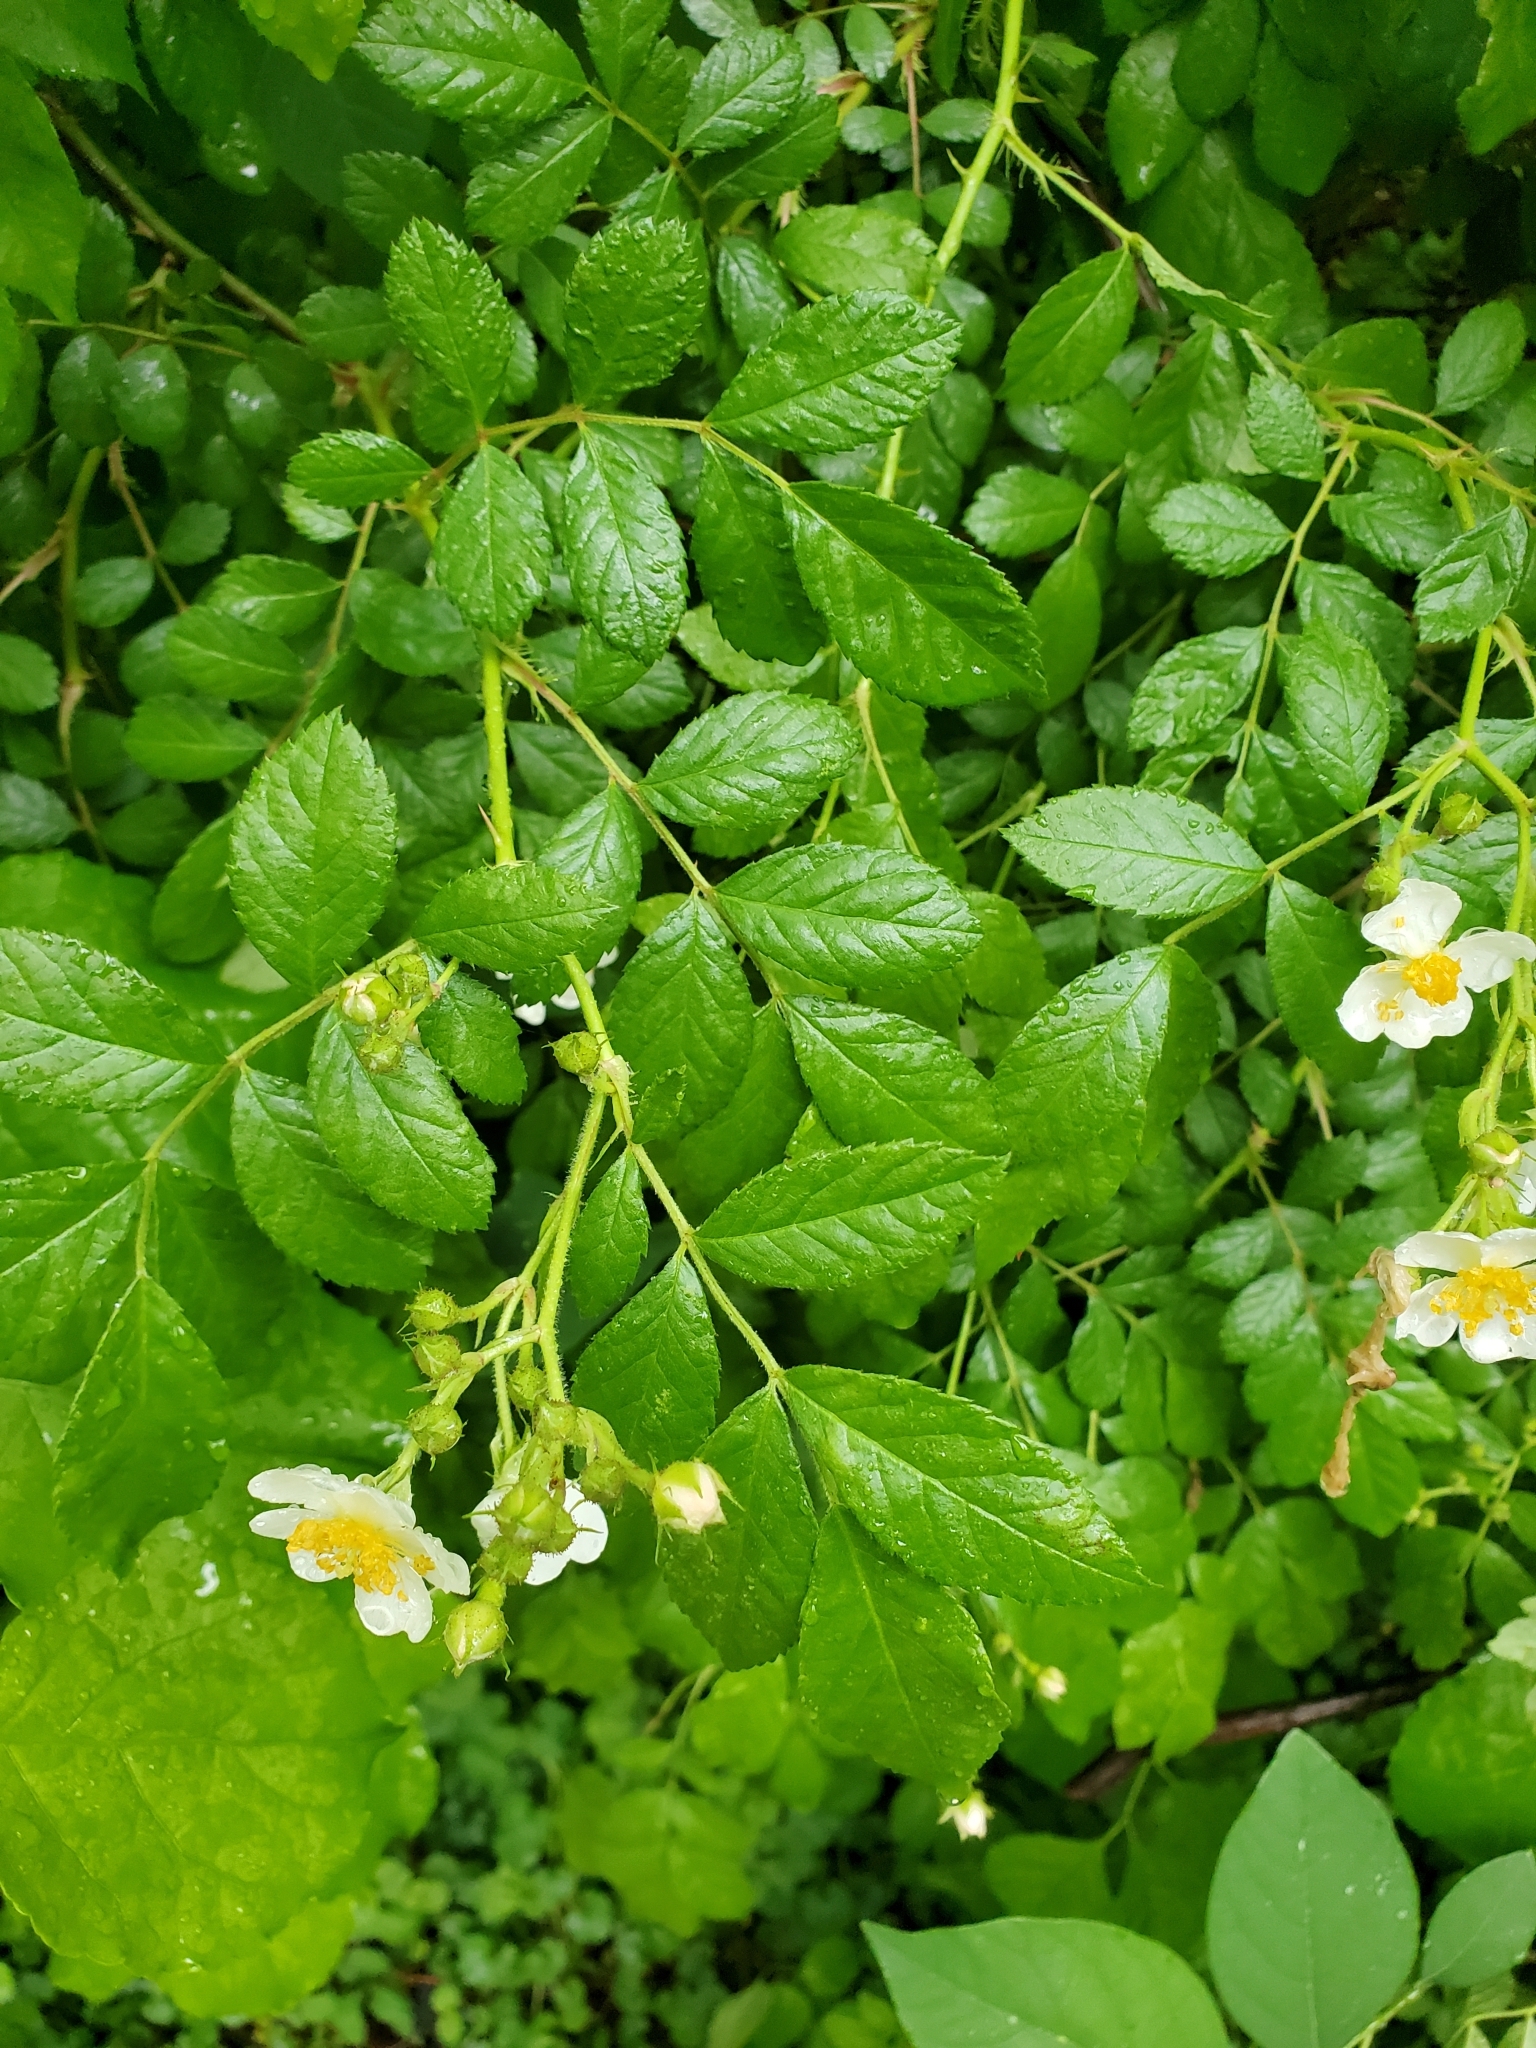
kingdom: Plantae
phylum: Tracheophyta
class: Magnoliopsida
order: Rosales
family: Rosaceae
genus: Rosa
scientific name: Rosa multiflora
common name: Multiflora rose
